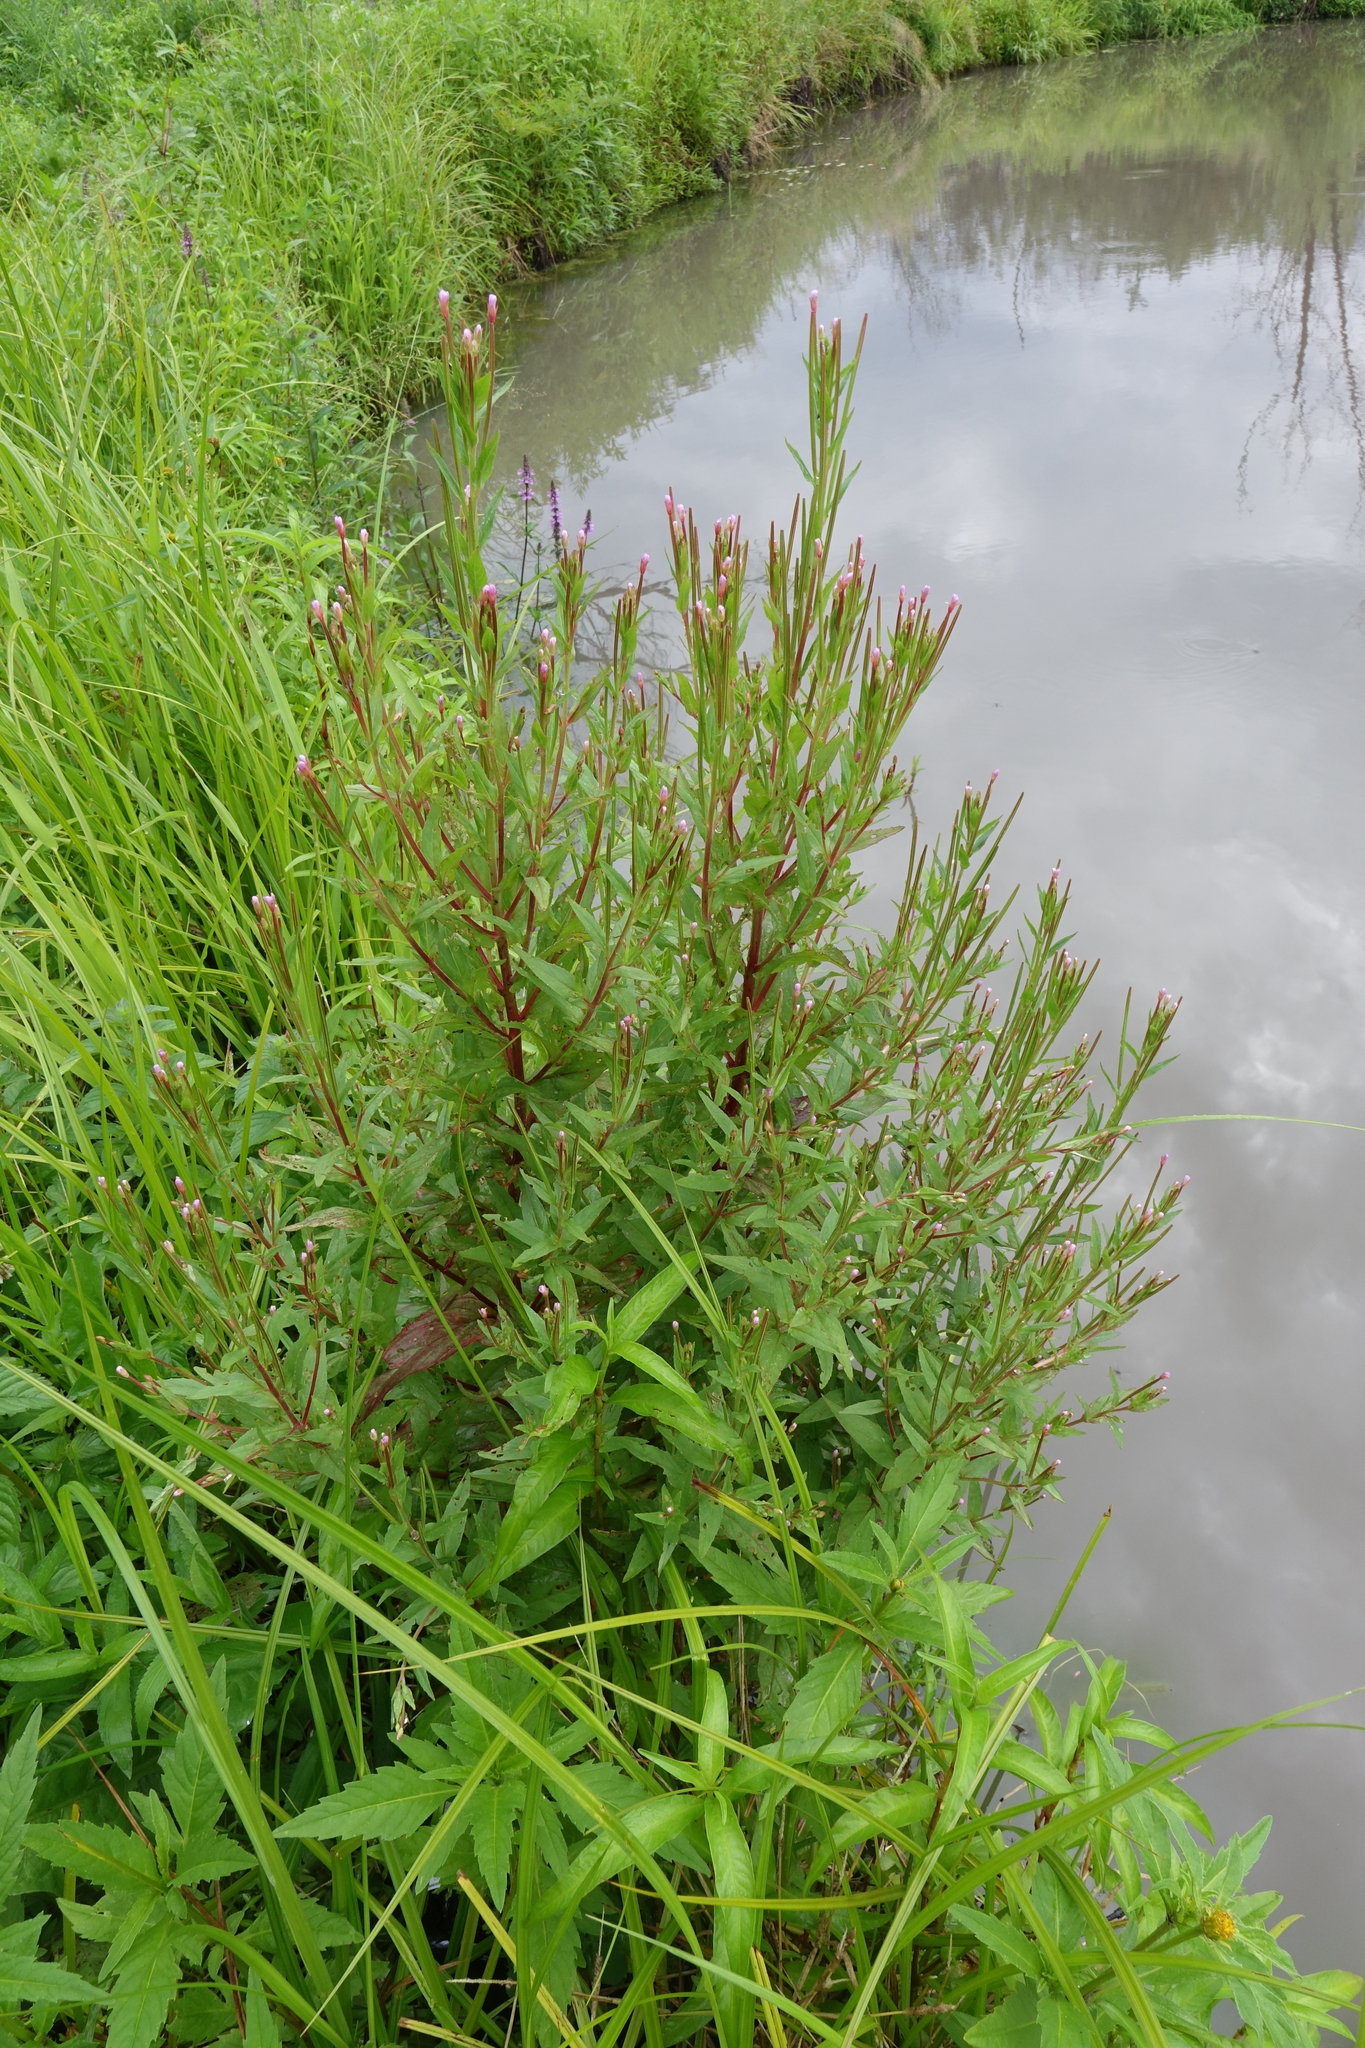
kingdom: Plantae
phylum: Tracheophyta
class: Magnoliopsida
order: Myrtales
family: Onagraceae
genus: Epilobium
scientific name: Epilobium ciliatum
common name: American willowherb
